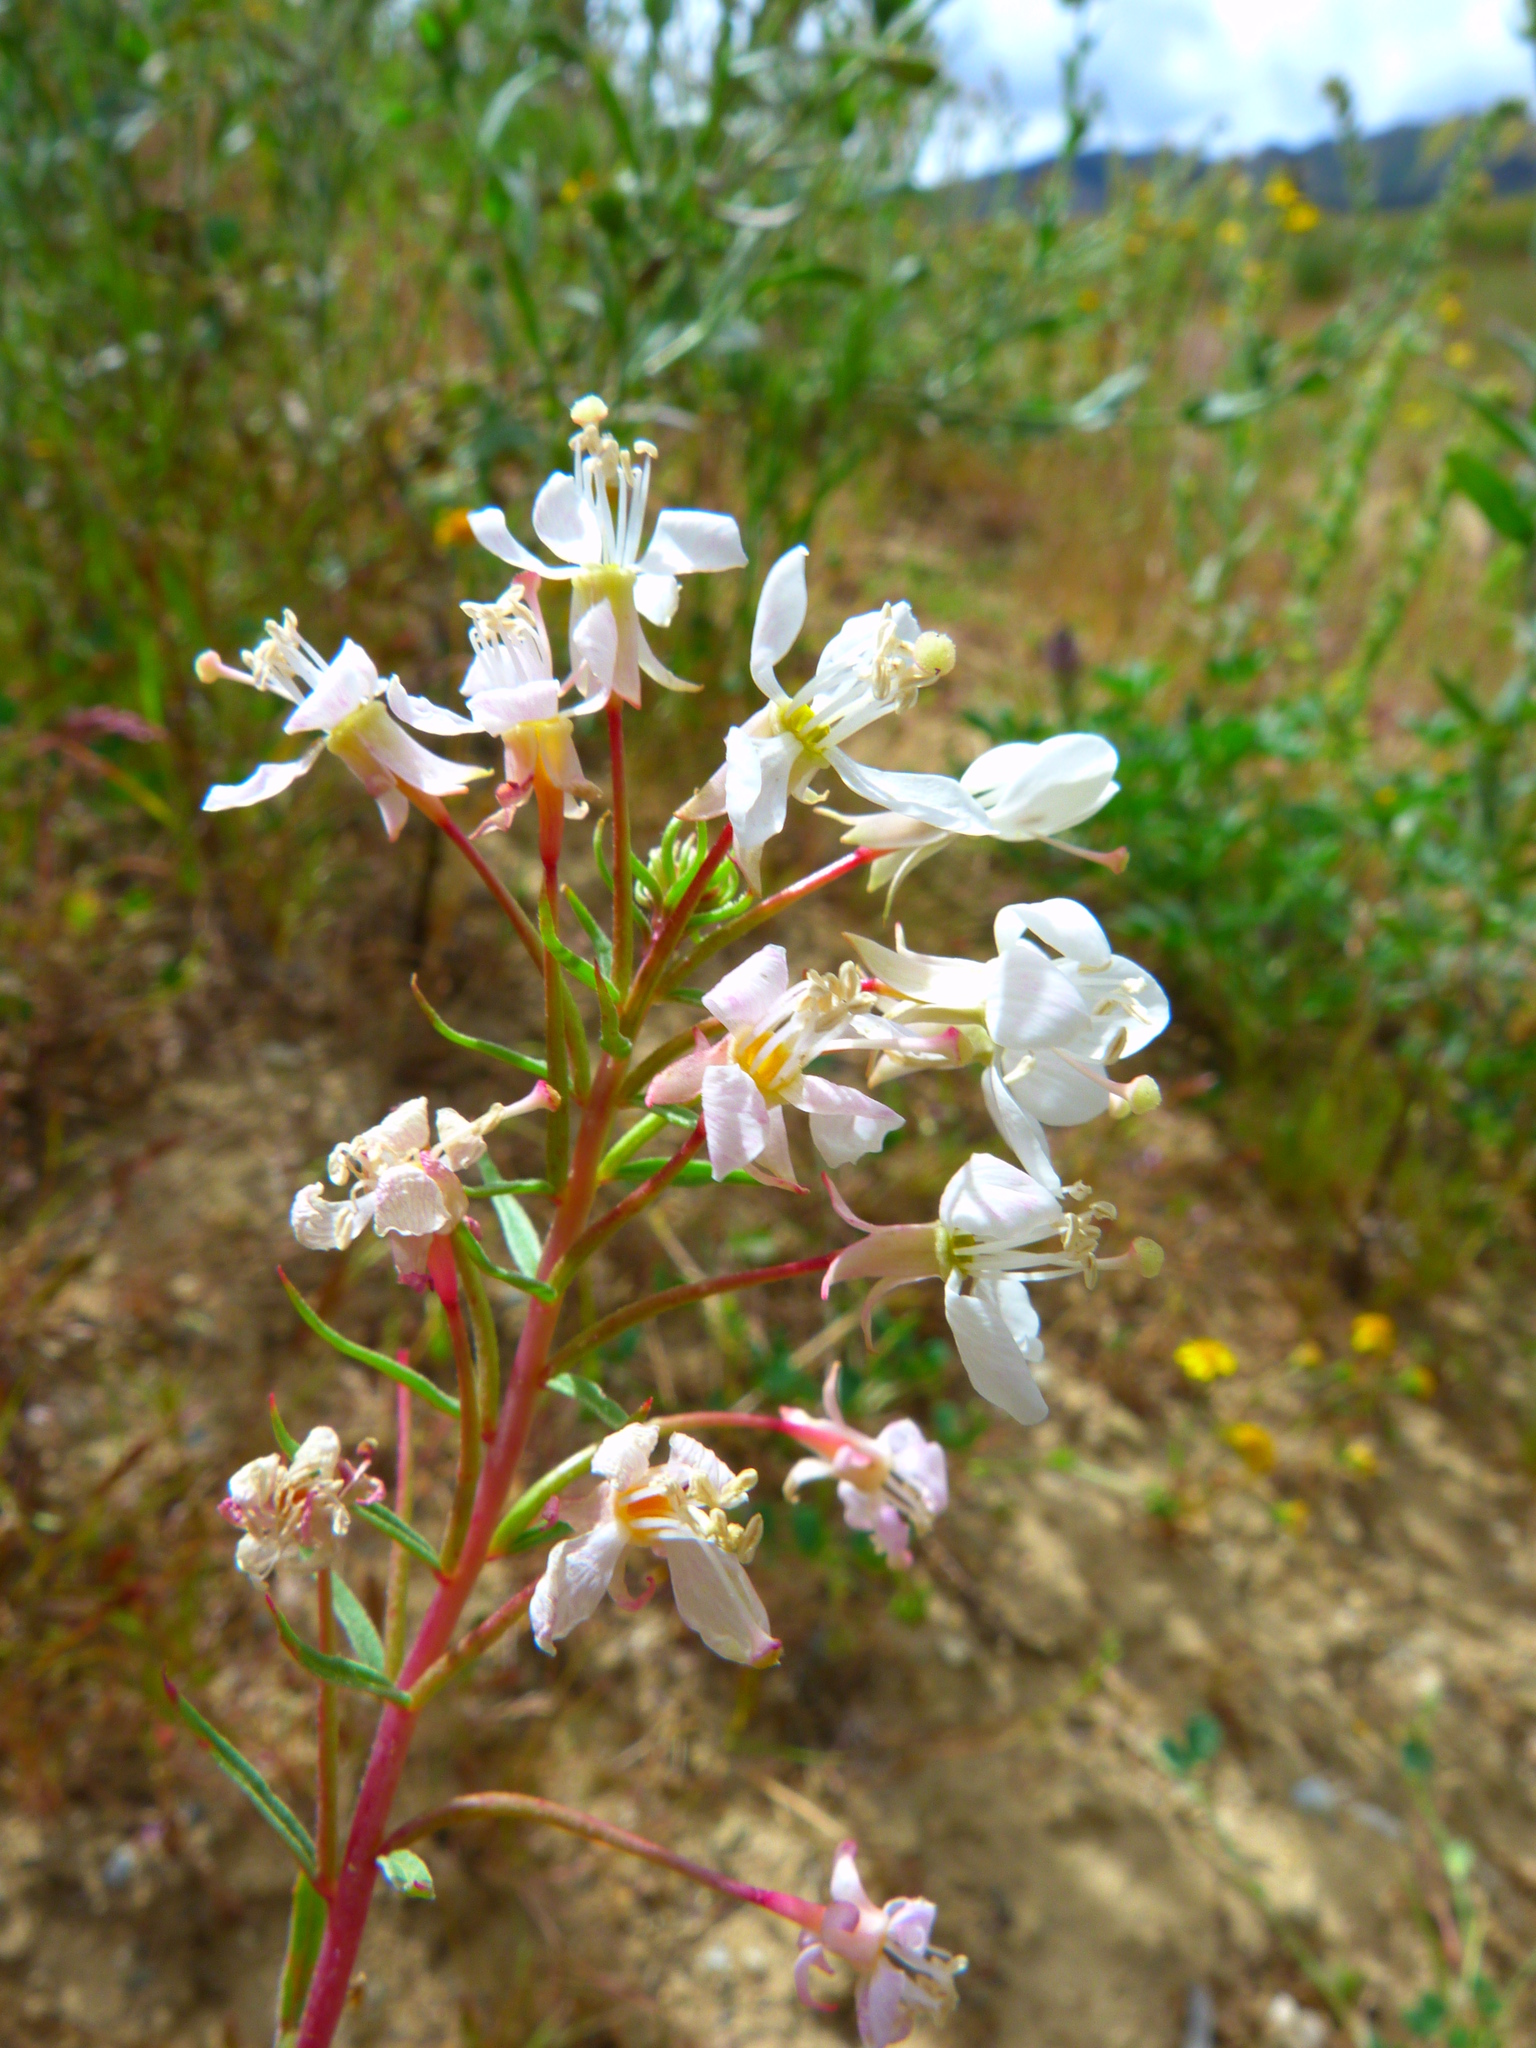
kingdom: Plantae
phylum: Tracheophyta
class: Magnoliopsida
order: Myrtales
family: Onagraceae
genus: Eremothera
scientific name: Eremothera boothii
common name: Booth's evening primrose
